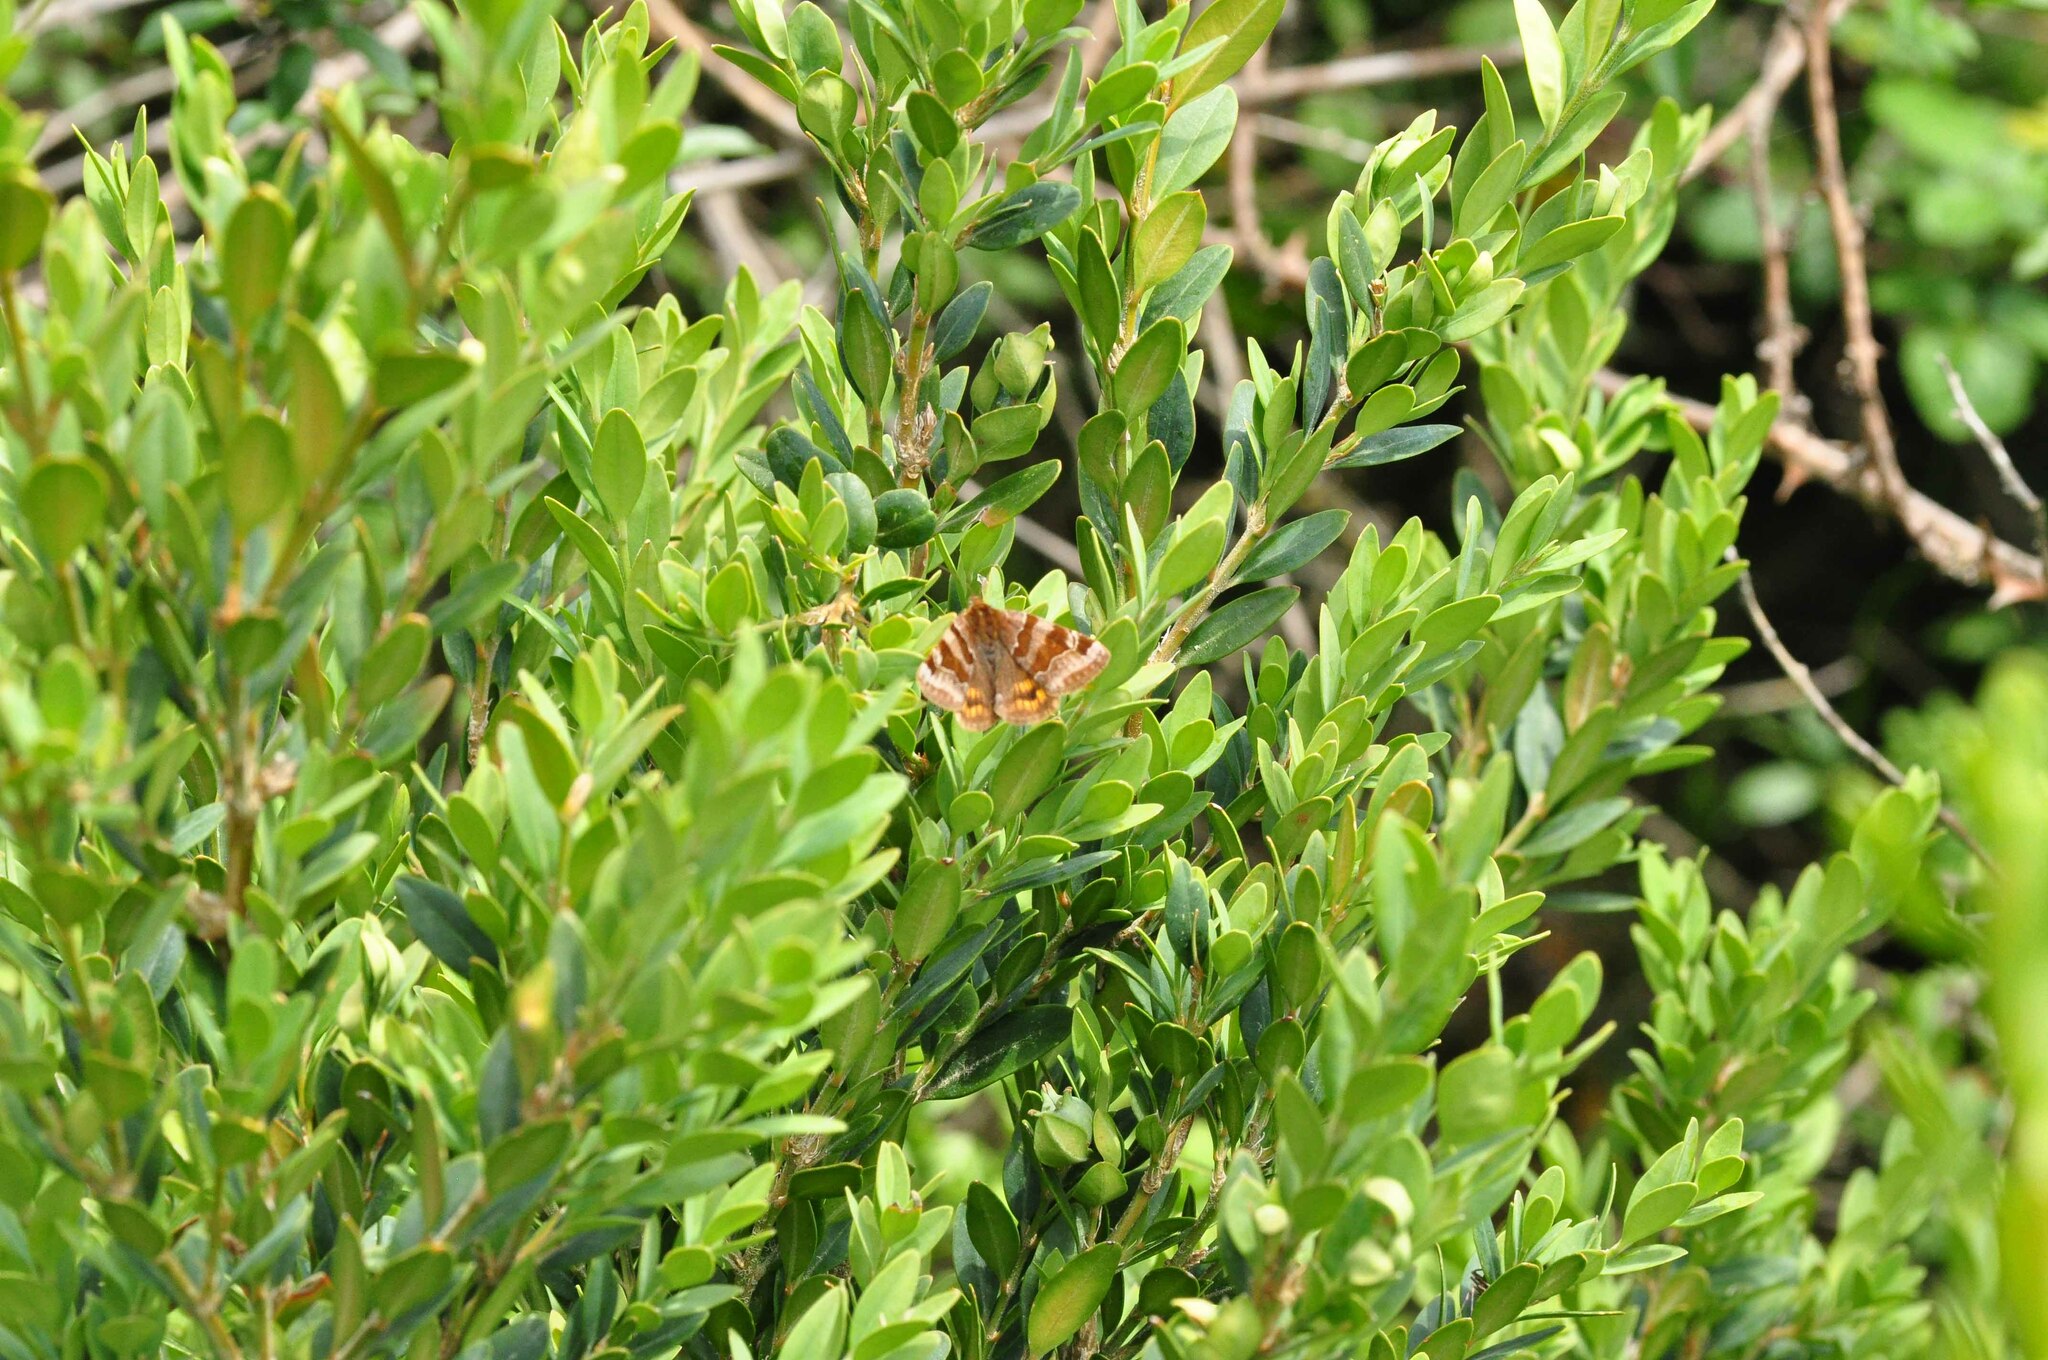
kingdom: Animalia
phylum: Arthropoda
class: Insecta
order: Lepidoptera
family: Erebidae
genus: Euclidia
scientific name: Euclidia glyphica
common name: Burnet companion
